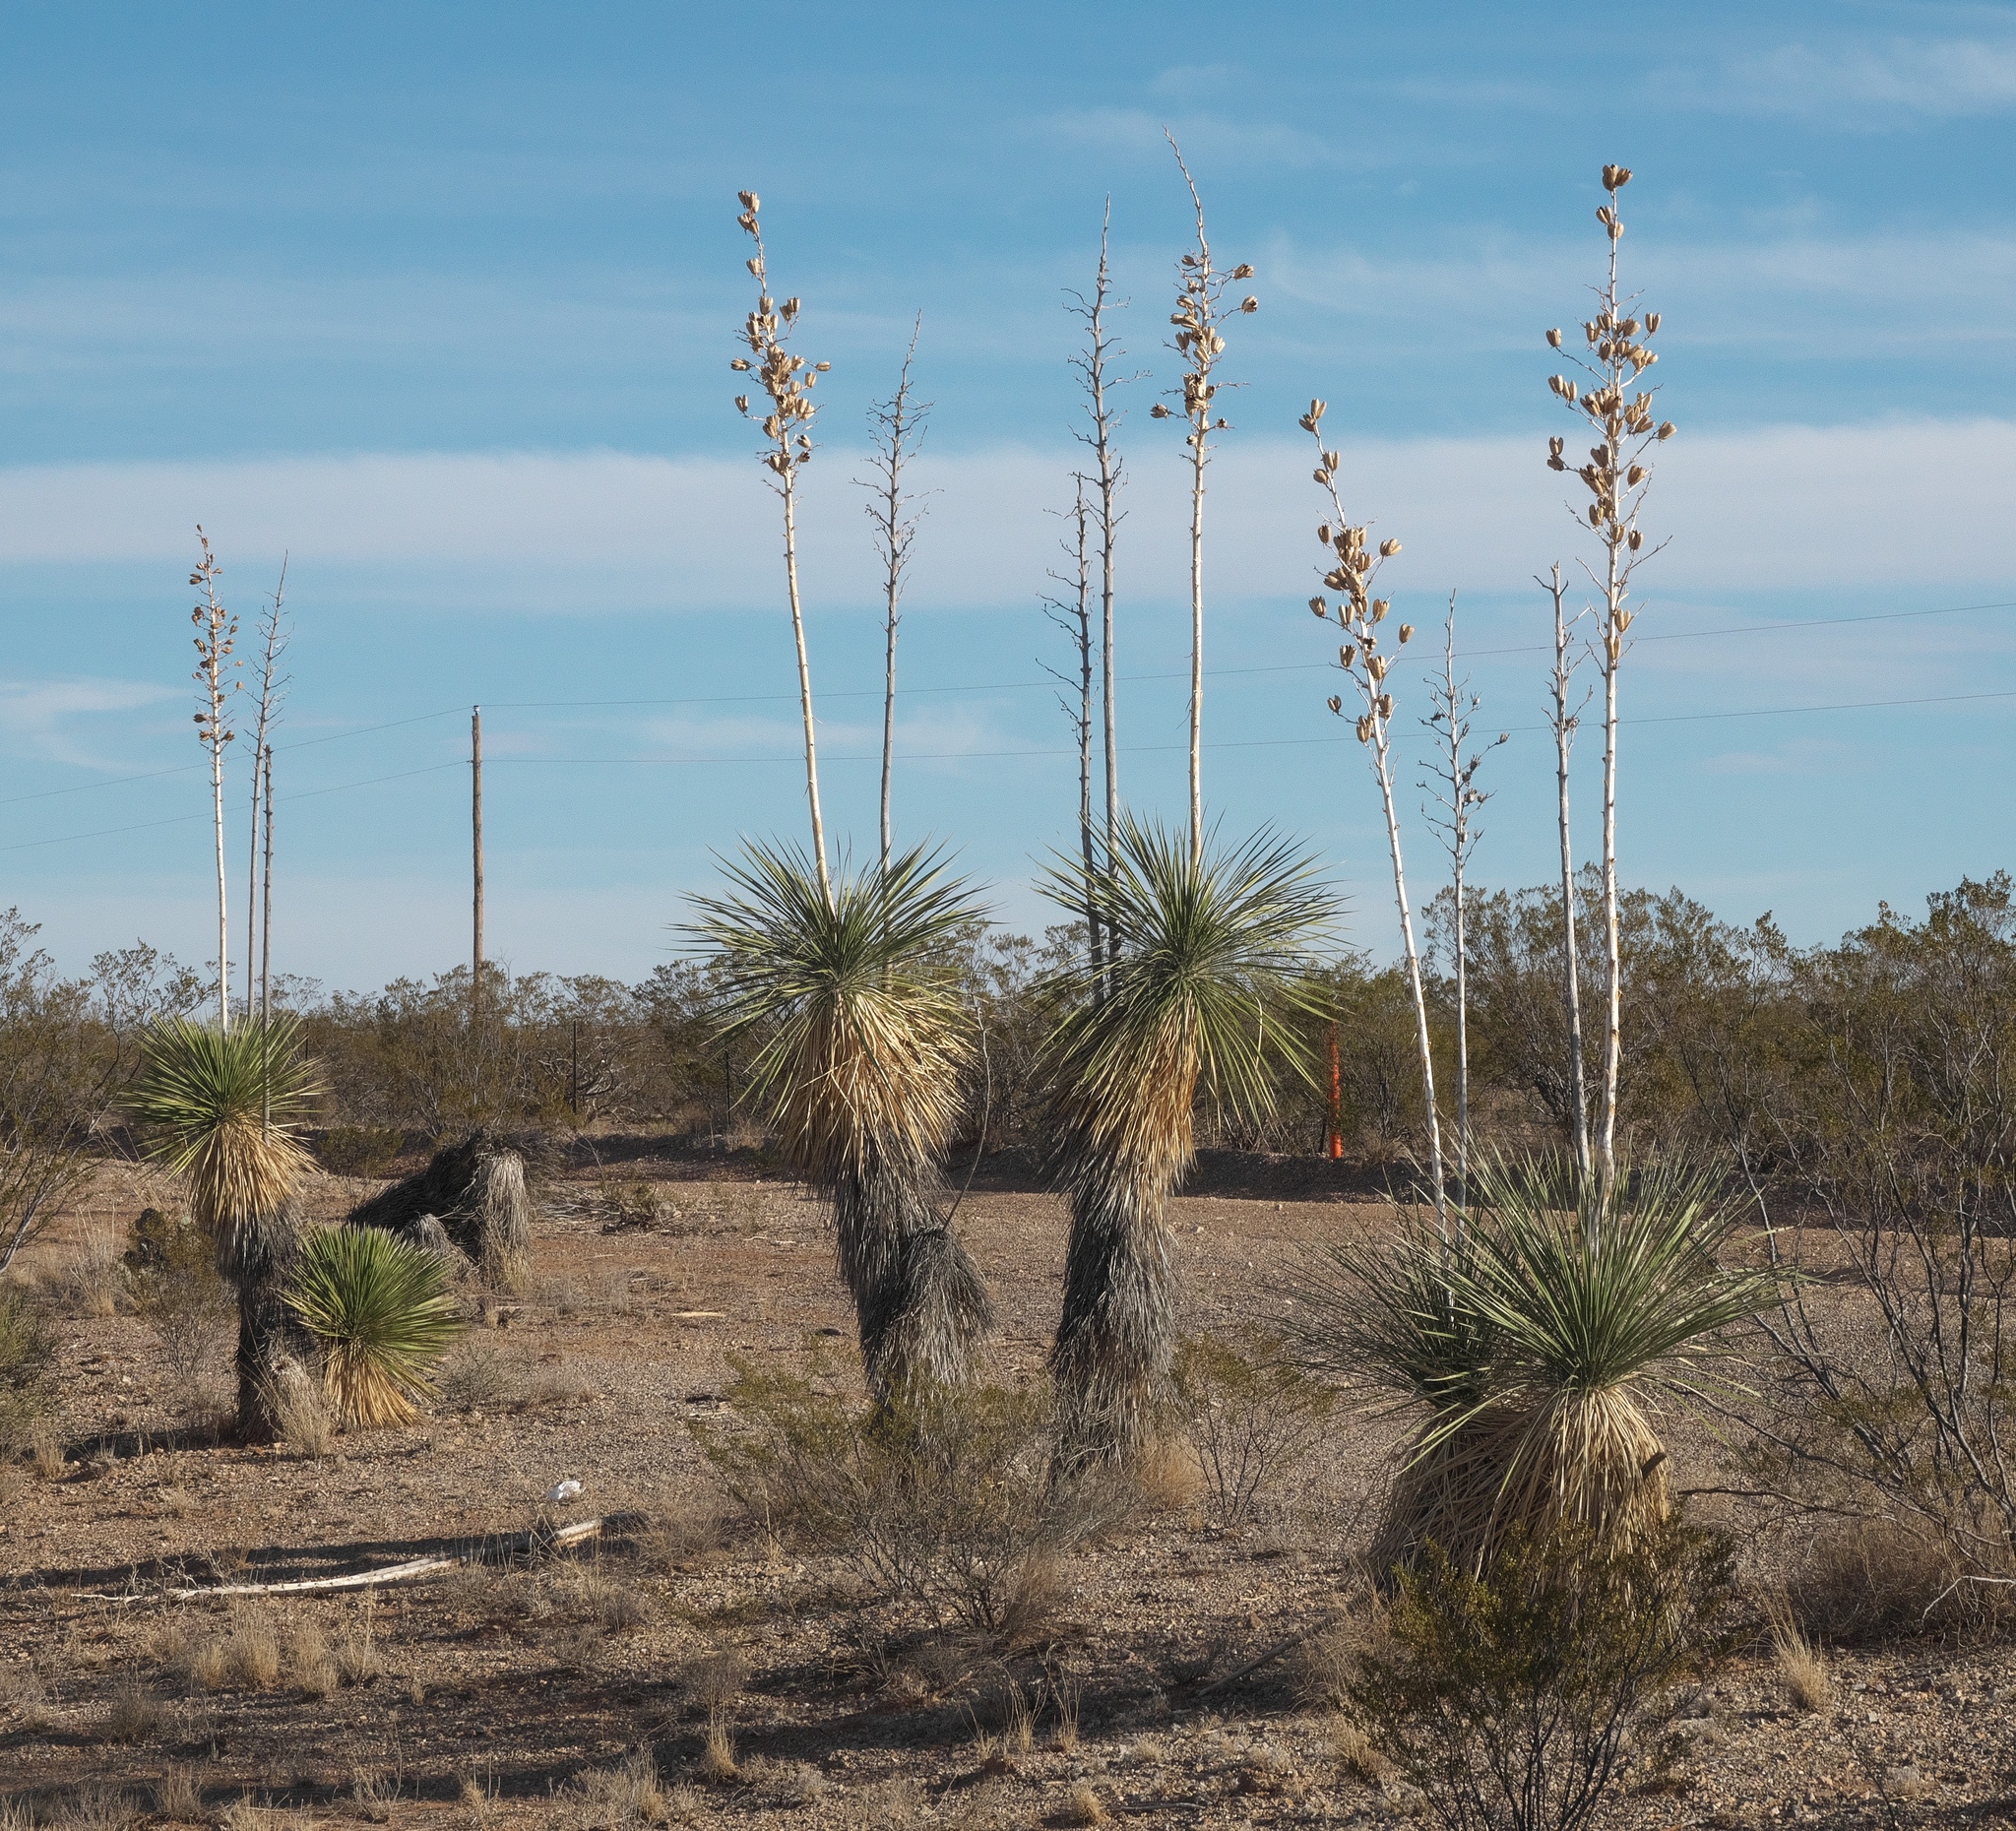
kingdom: Plantae
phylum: Tracheophyta
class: Liliopsida
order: Asparagales
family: Asparagaceae
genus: Yucca
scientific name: Yucca elata
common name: Palmella
